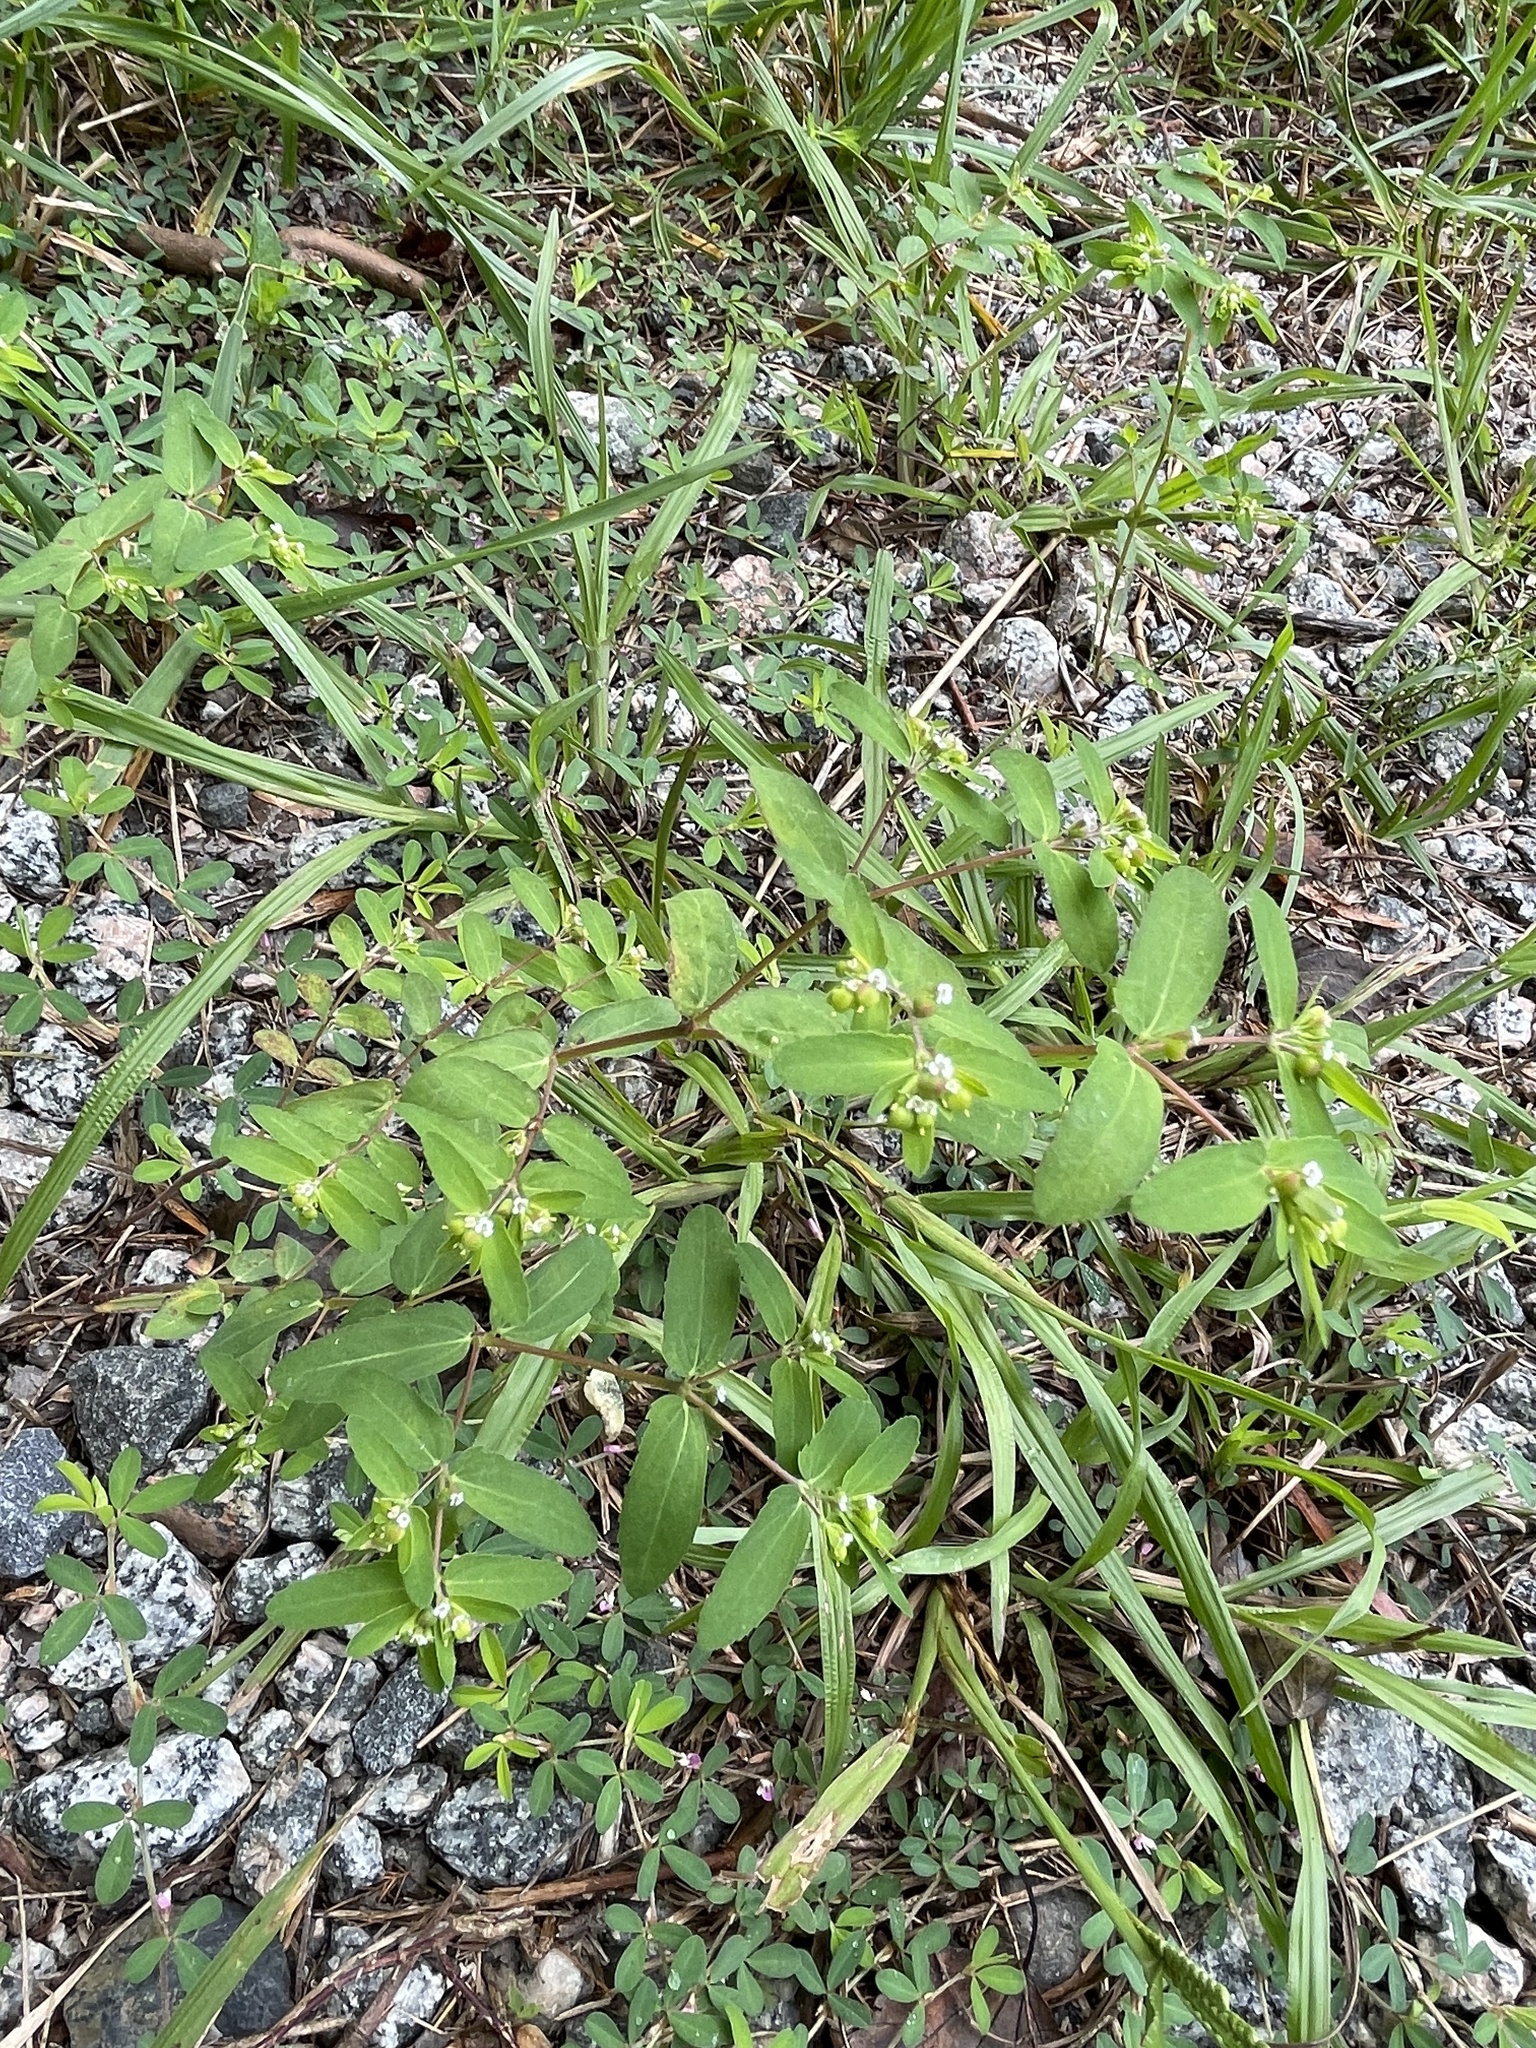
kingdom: Plantae
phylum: Tracheophyta
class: Magnoliopsida
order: Malpighiales
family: Euphorbiaceae
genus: Euphorbia
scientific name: Euphorbia nutans
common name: Eyebane
